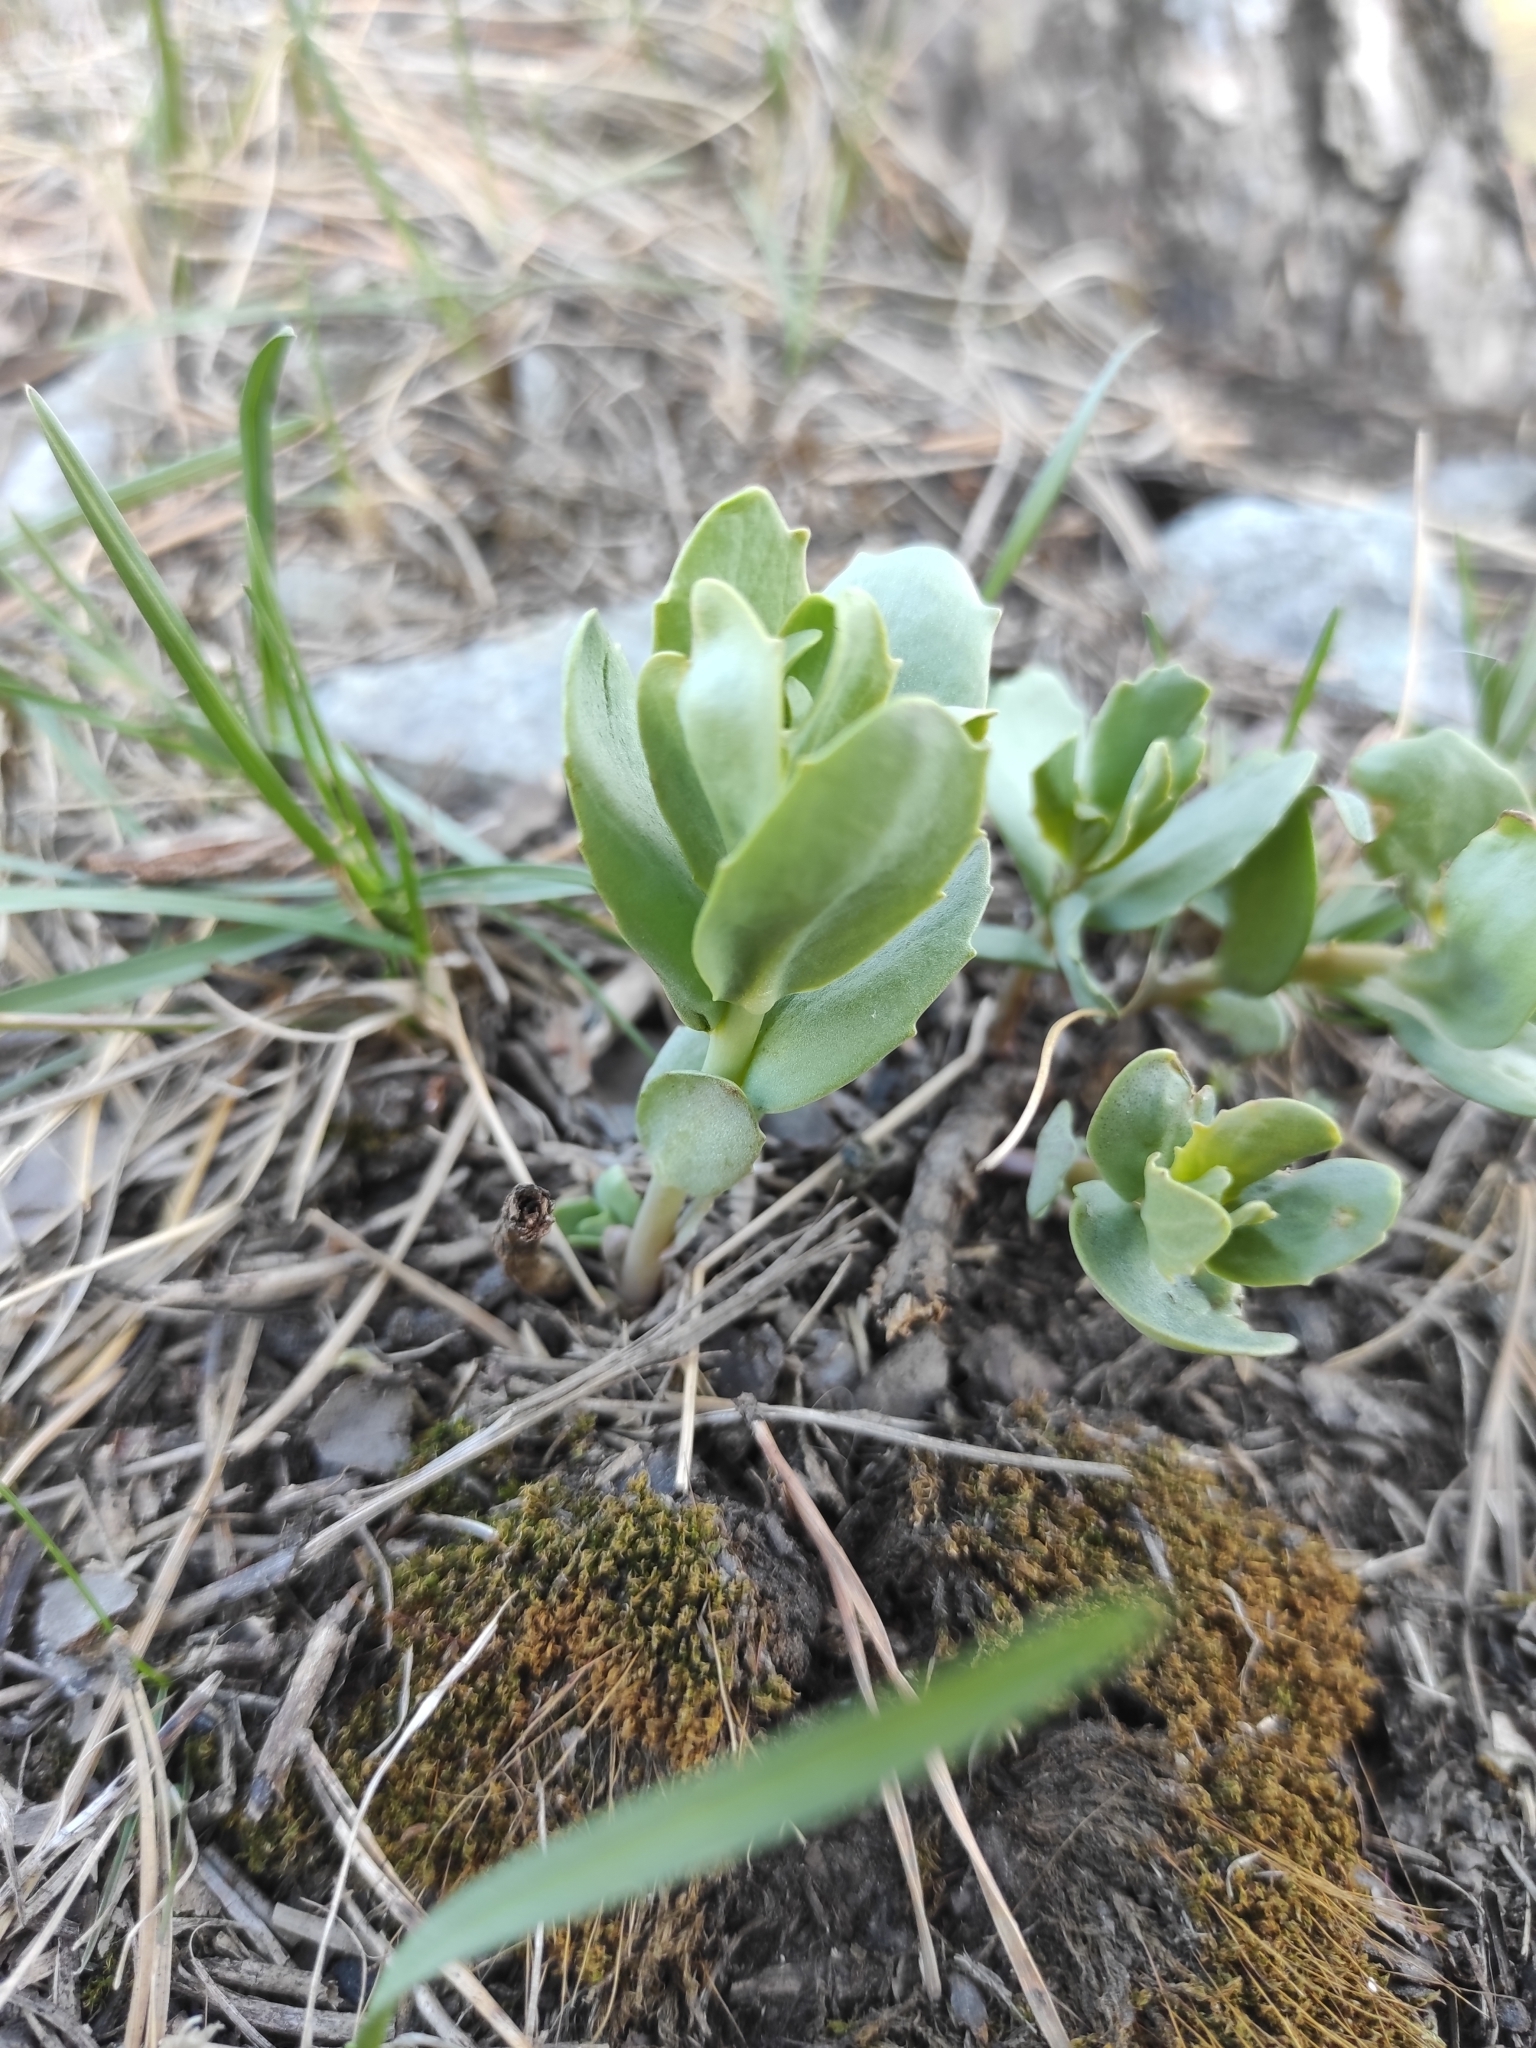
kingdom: Plantae
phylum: Tracheophyta
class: Magnoliopsida
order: Saxifragales
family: Crassulaceae
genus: Hylotelephium
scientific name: Hylotelephium telephium
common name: Live-forever
